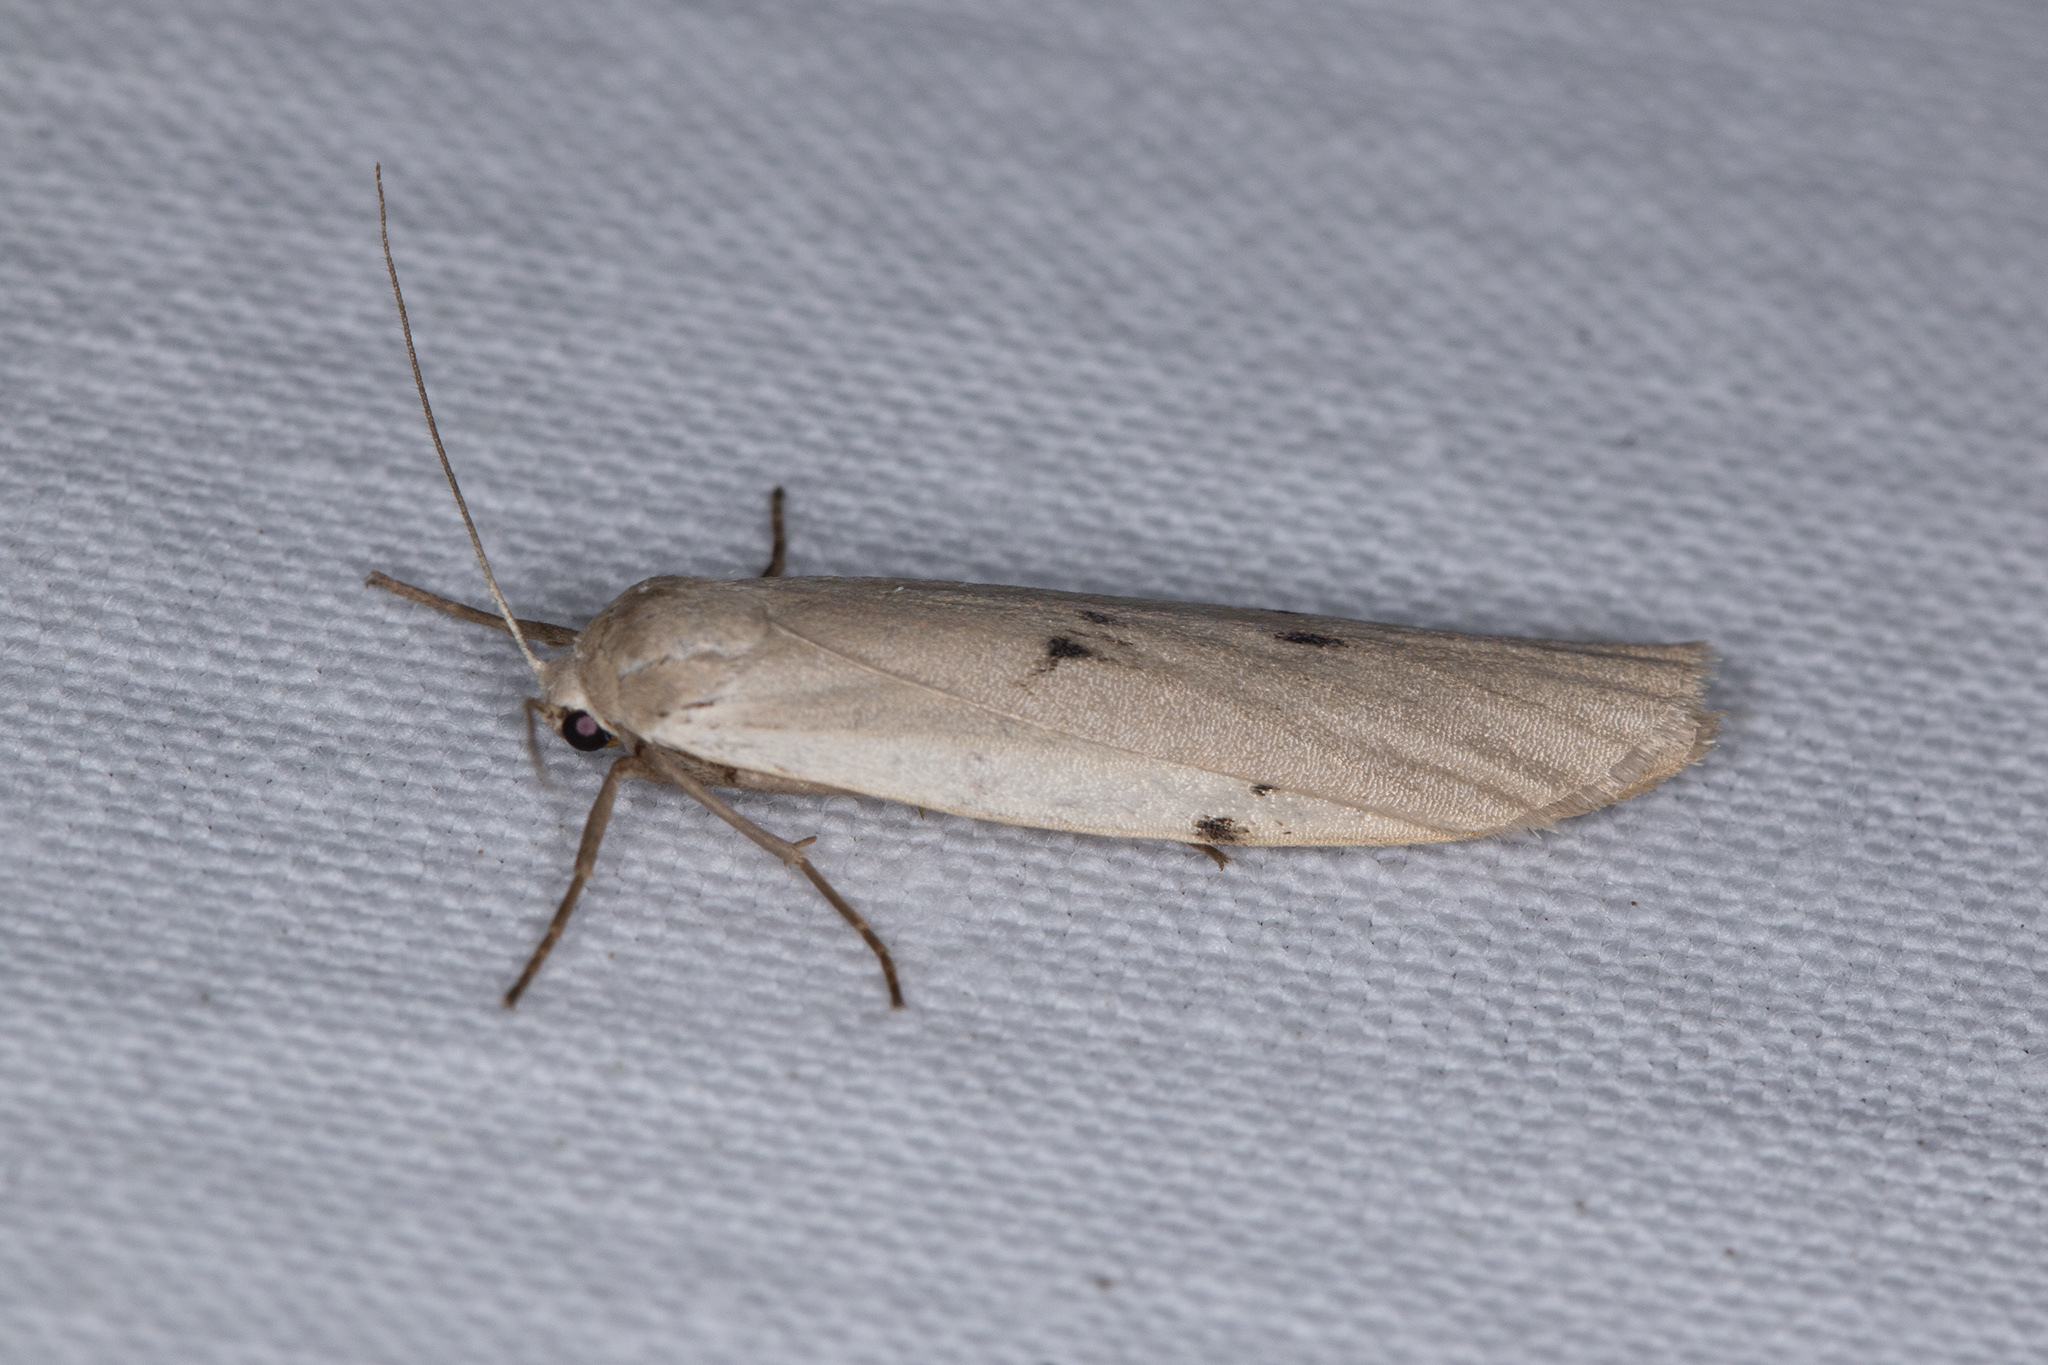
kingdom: Animalia
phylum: Arthropoda
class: Insecta
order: Lepidoptera
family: Erebidae
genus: Pelosia
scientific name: Pelosia muscerda
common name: Dotted footman
